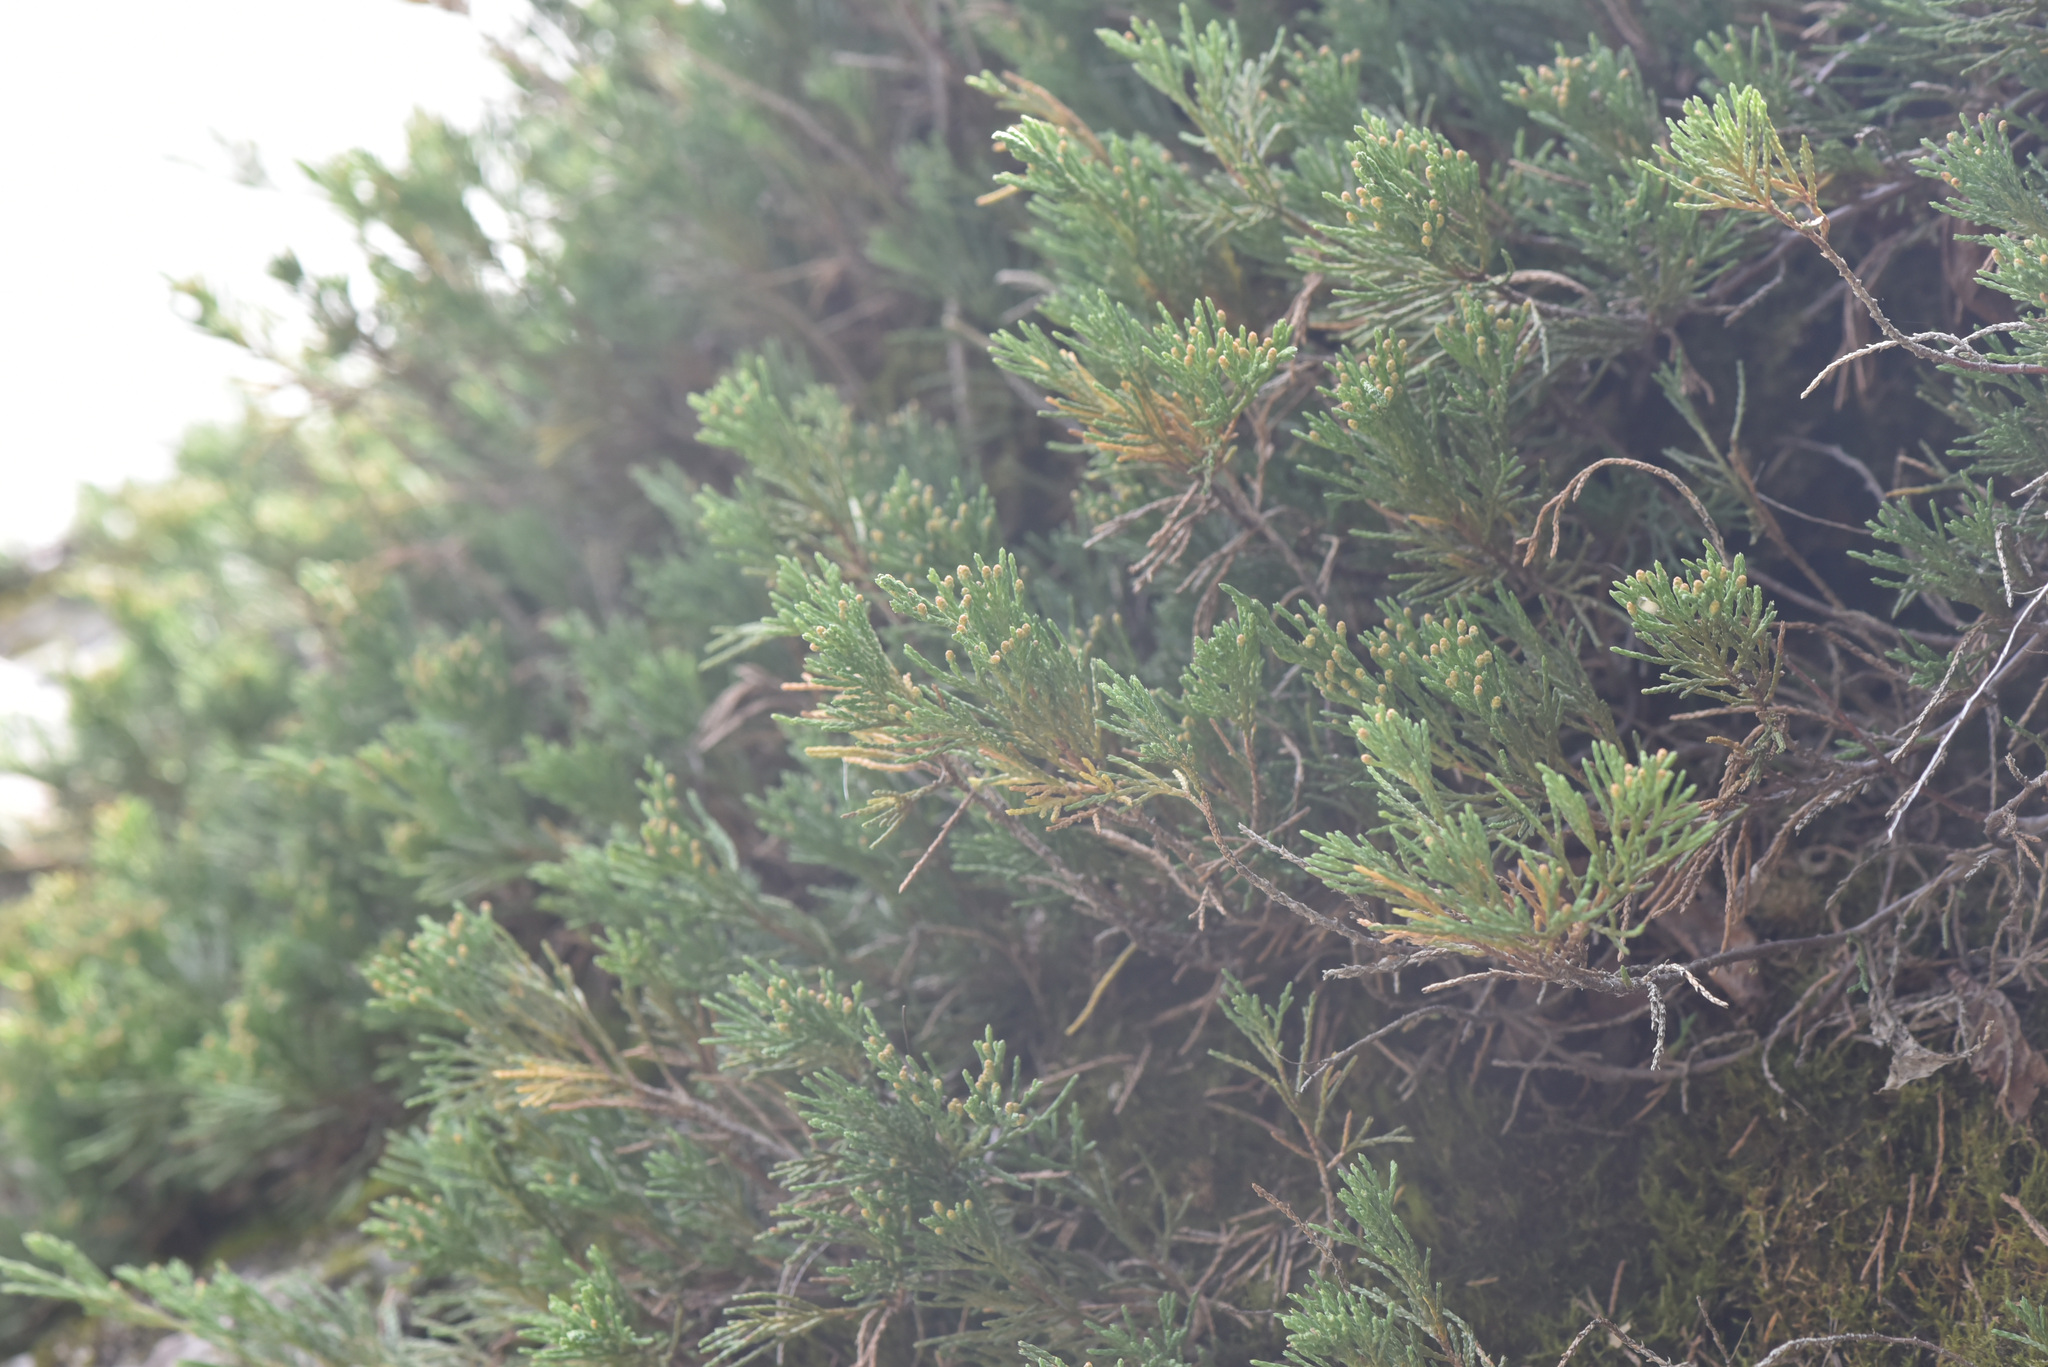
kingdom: Plantae
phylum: Tracheophyta
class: Pinopsida
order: Pinales
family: Cupressaceae
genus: Juniperus
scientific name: Juniperus horizontalis
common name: Creeping juniper
